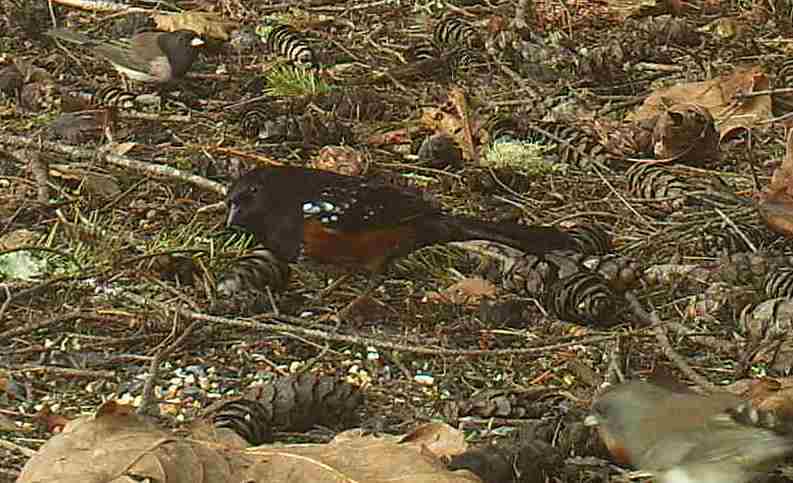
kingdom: Animalia
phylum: Chordata
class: Aves
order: Passeriformes
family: Passerellidae
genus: Pipilo
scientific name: Pipilo maculatus
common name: Spotted towhee
